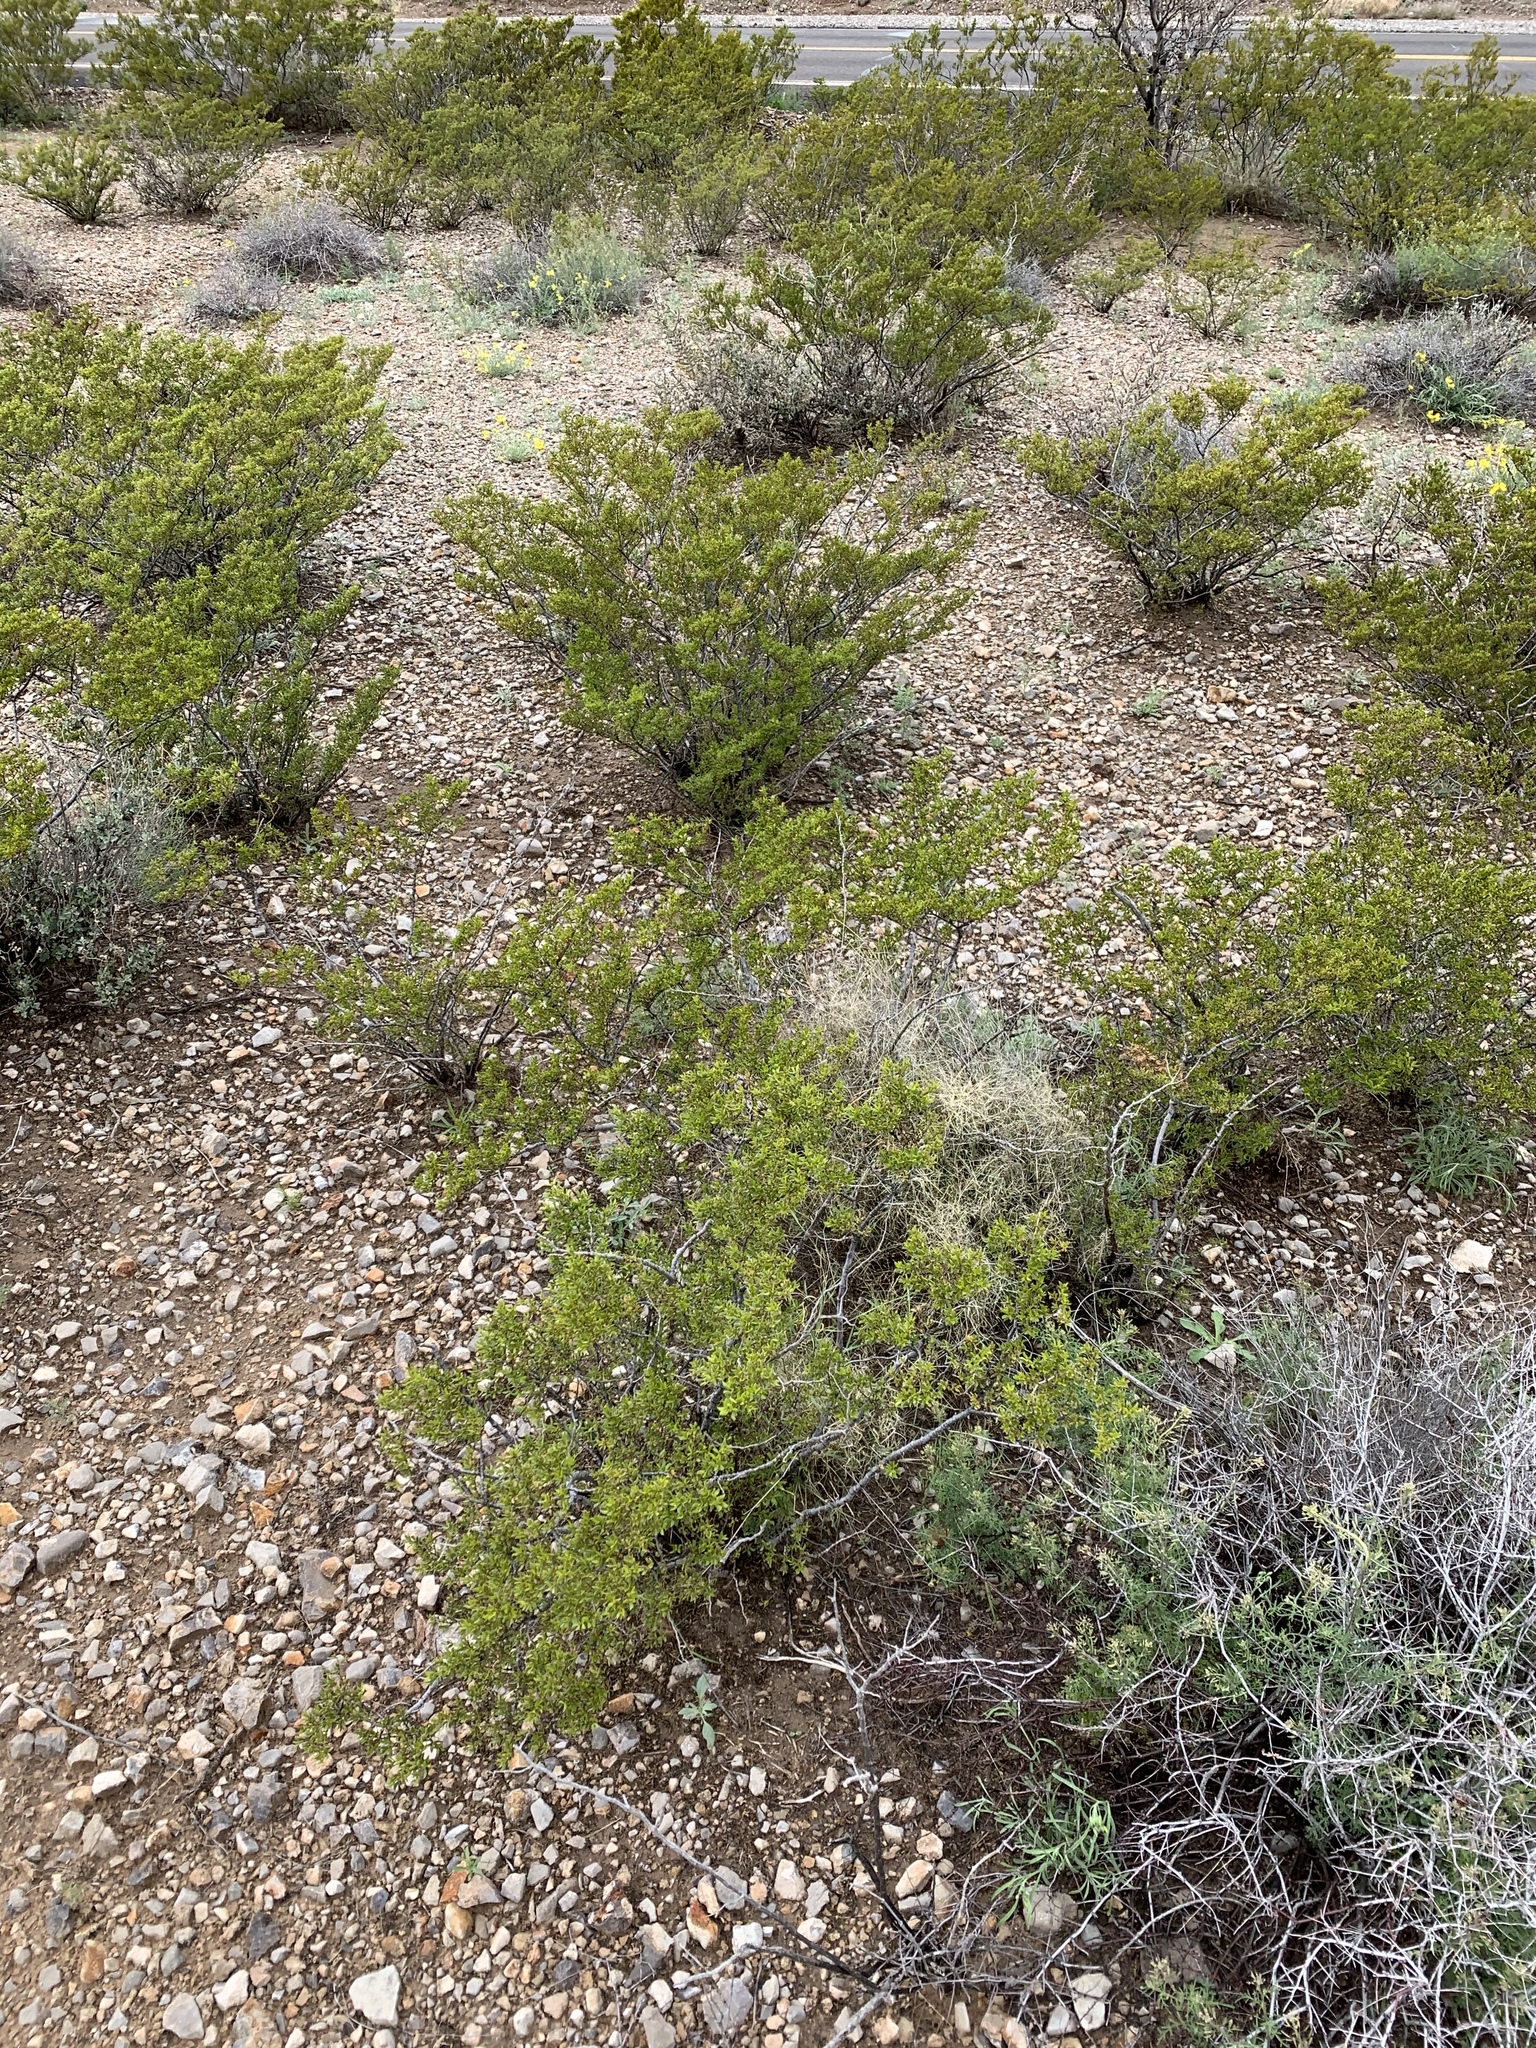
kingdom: Plantae
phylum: Tracheophyta
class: Magnoliopsida
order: Zygophyllales
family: Zygophyllaceae
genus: Larrea
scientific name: Larrea tridentata
